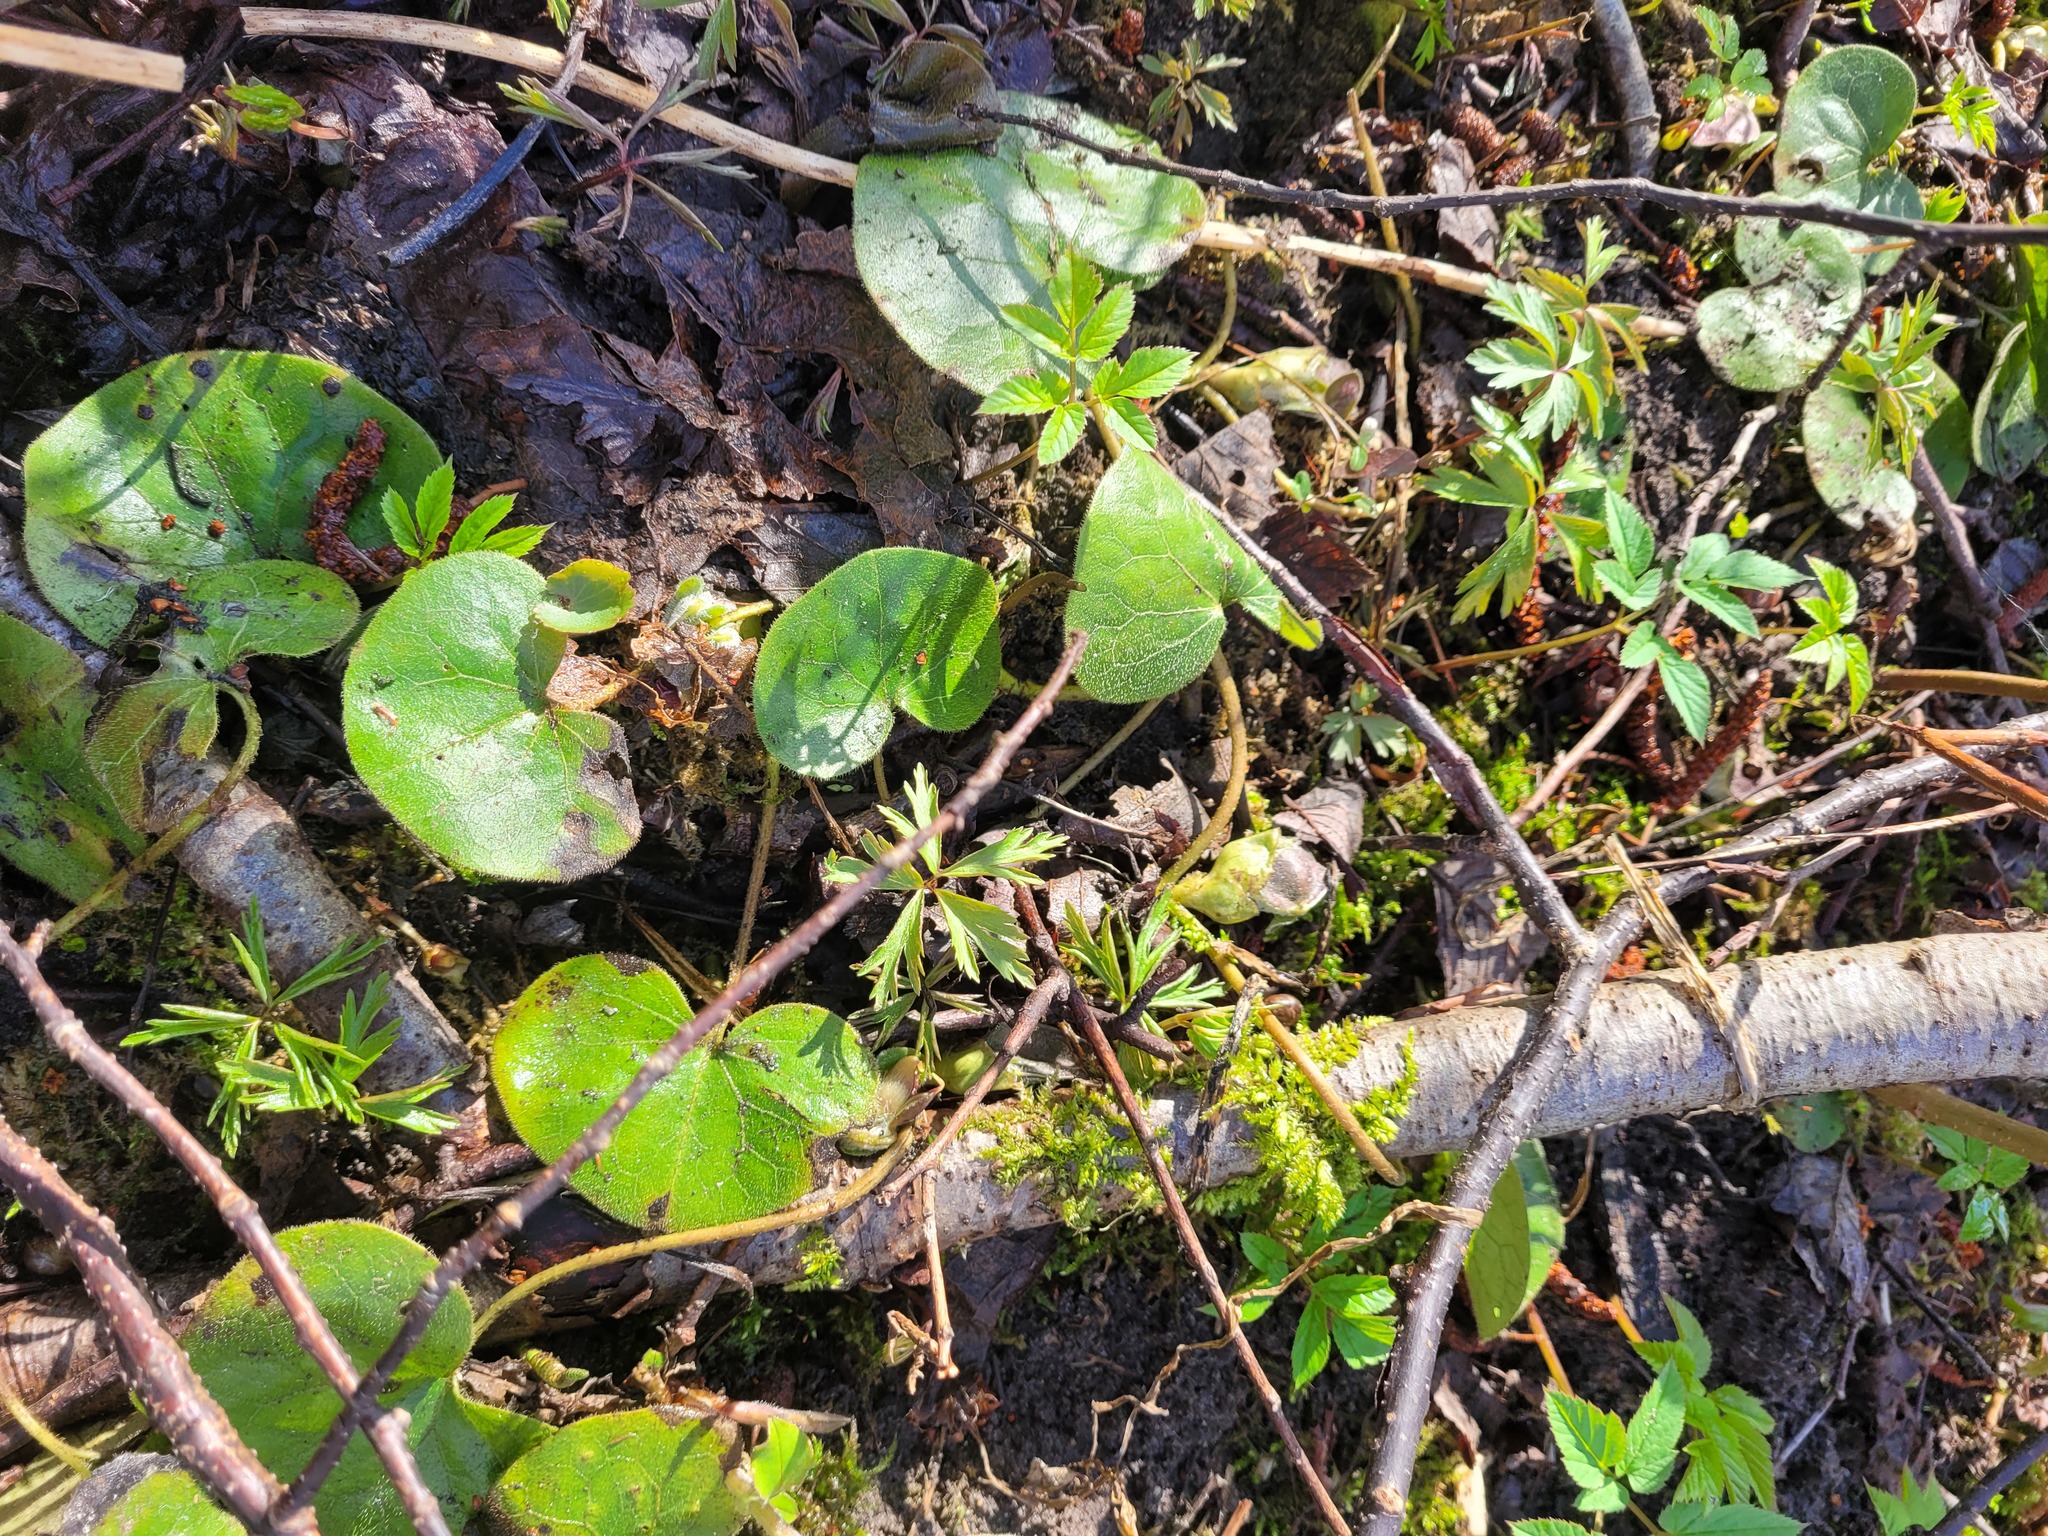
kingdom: Plantae
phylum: Tracheophyta
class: Magnoliopsida
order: Piperales
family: Aristolochiaceae
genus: Asarum
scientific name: Asarum europaeum
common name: Asarabacca
